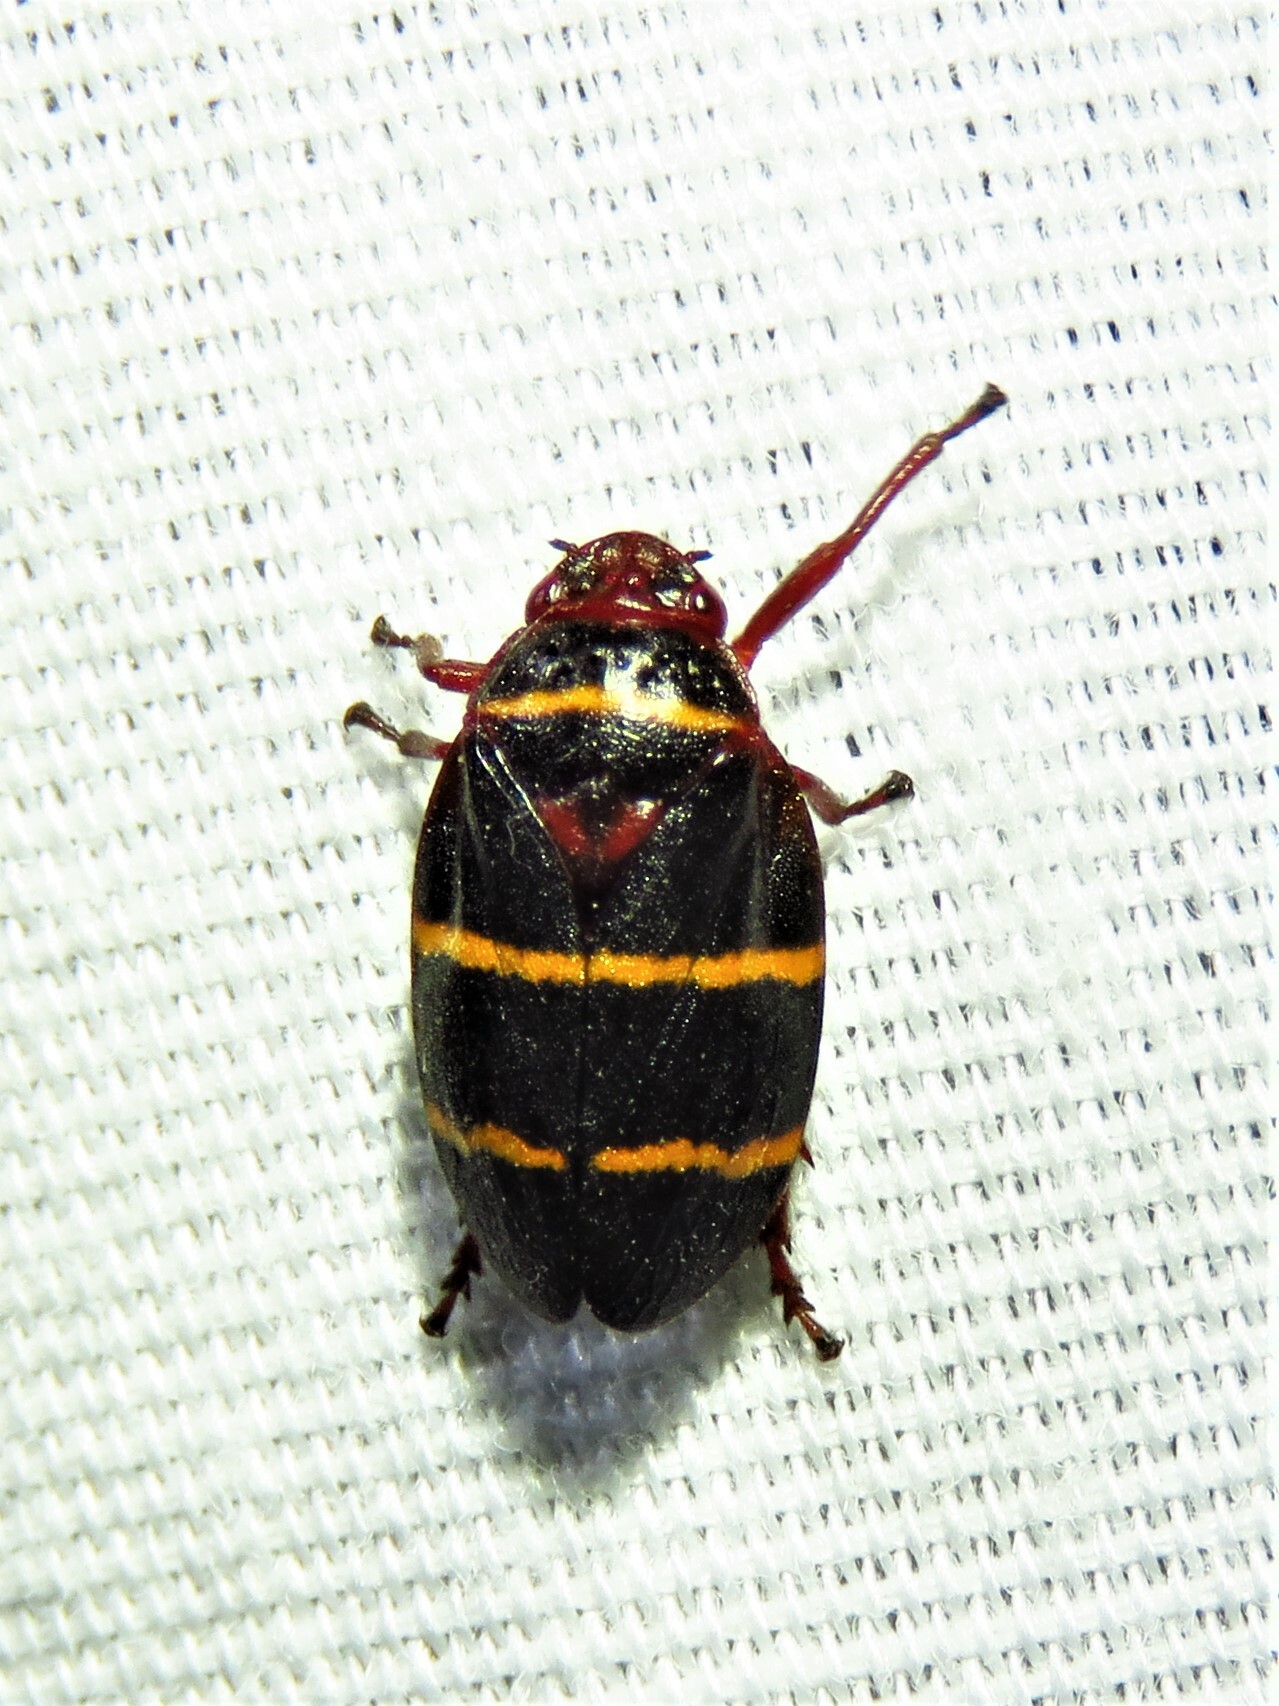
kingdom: Animalia
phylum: Arthropoda
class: Insecta
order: Hemiptera
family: Cercopidae
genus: Prosapia
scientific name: Prosapia bicincta
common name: Twolined spittlebug
